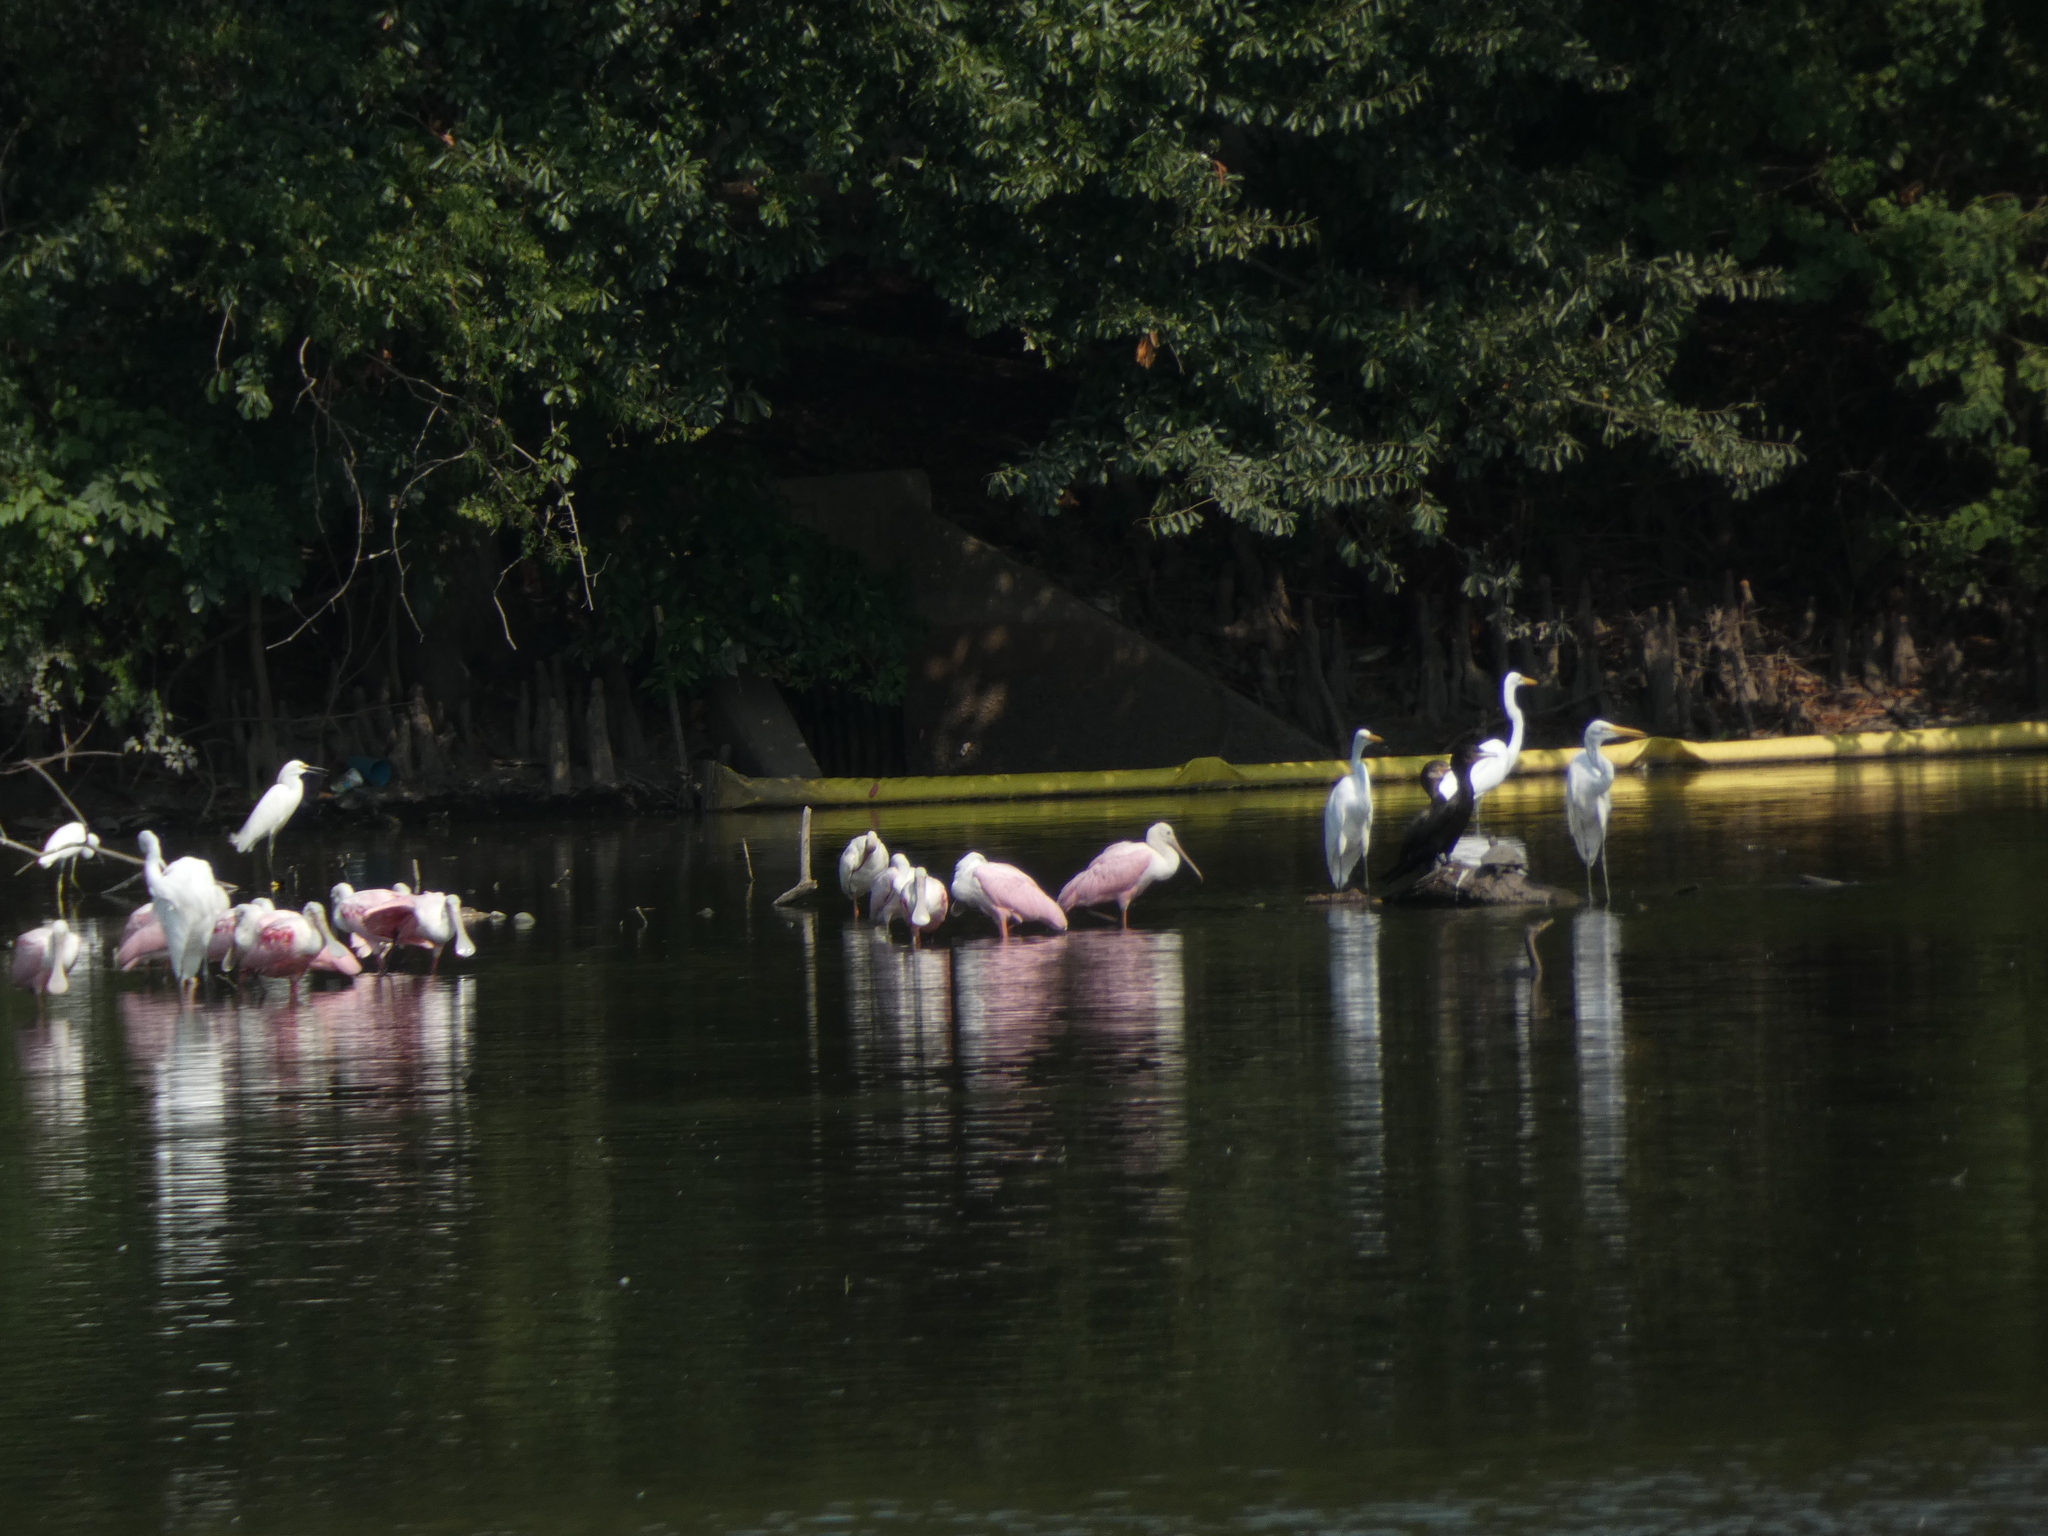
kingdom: Animalia
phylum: Chordata
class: Aves
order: Pelecaniformes
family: Threskiornithidae
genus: Platalea
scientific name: Platalea ajaja
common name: Roseate spoonbill
